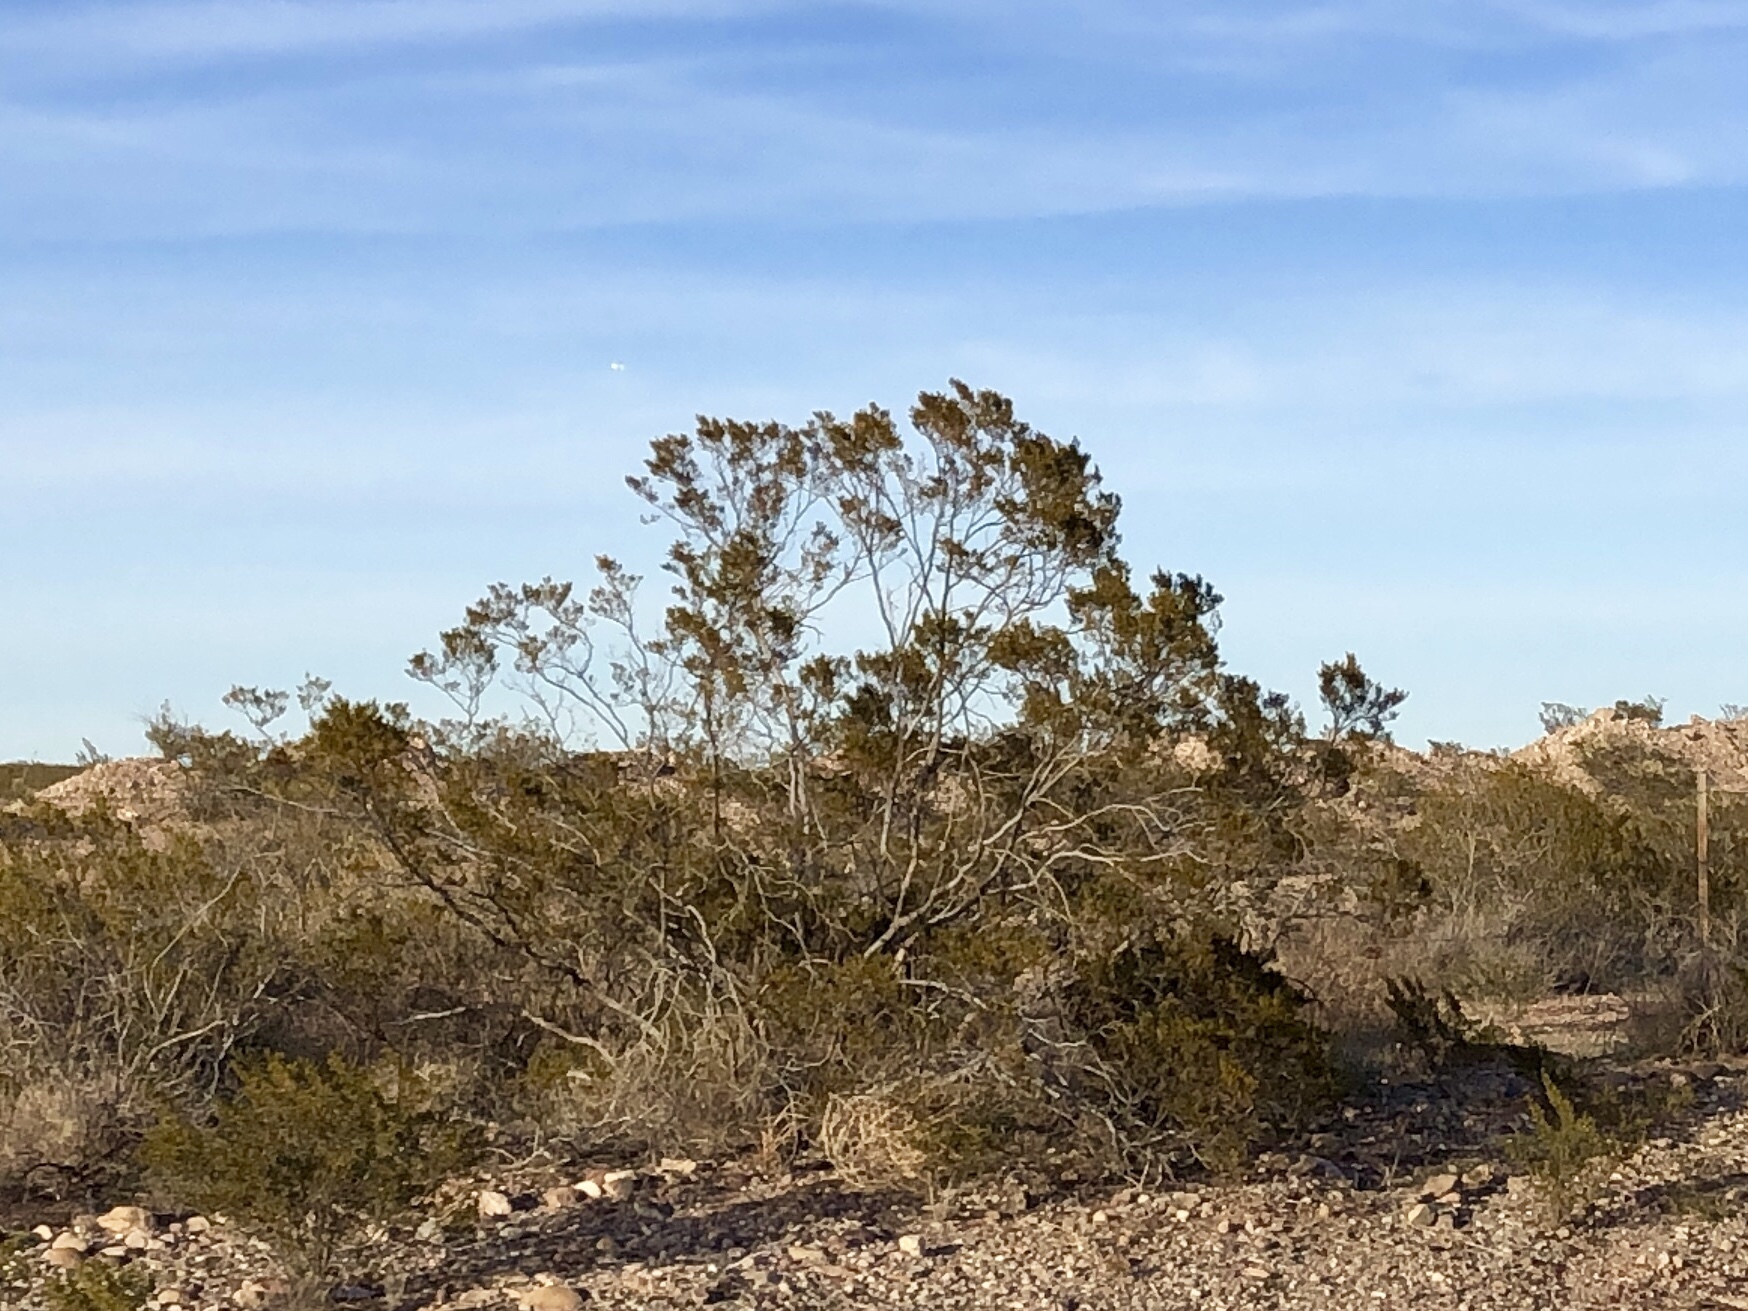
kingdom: Plantae
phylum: Tracheophyta
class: Magnoliopsida
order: Zygophyllales
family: Zygophyllaceae
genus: Larrea
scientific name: Larrea tridentata
